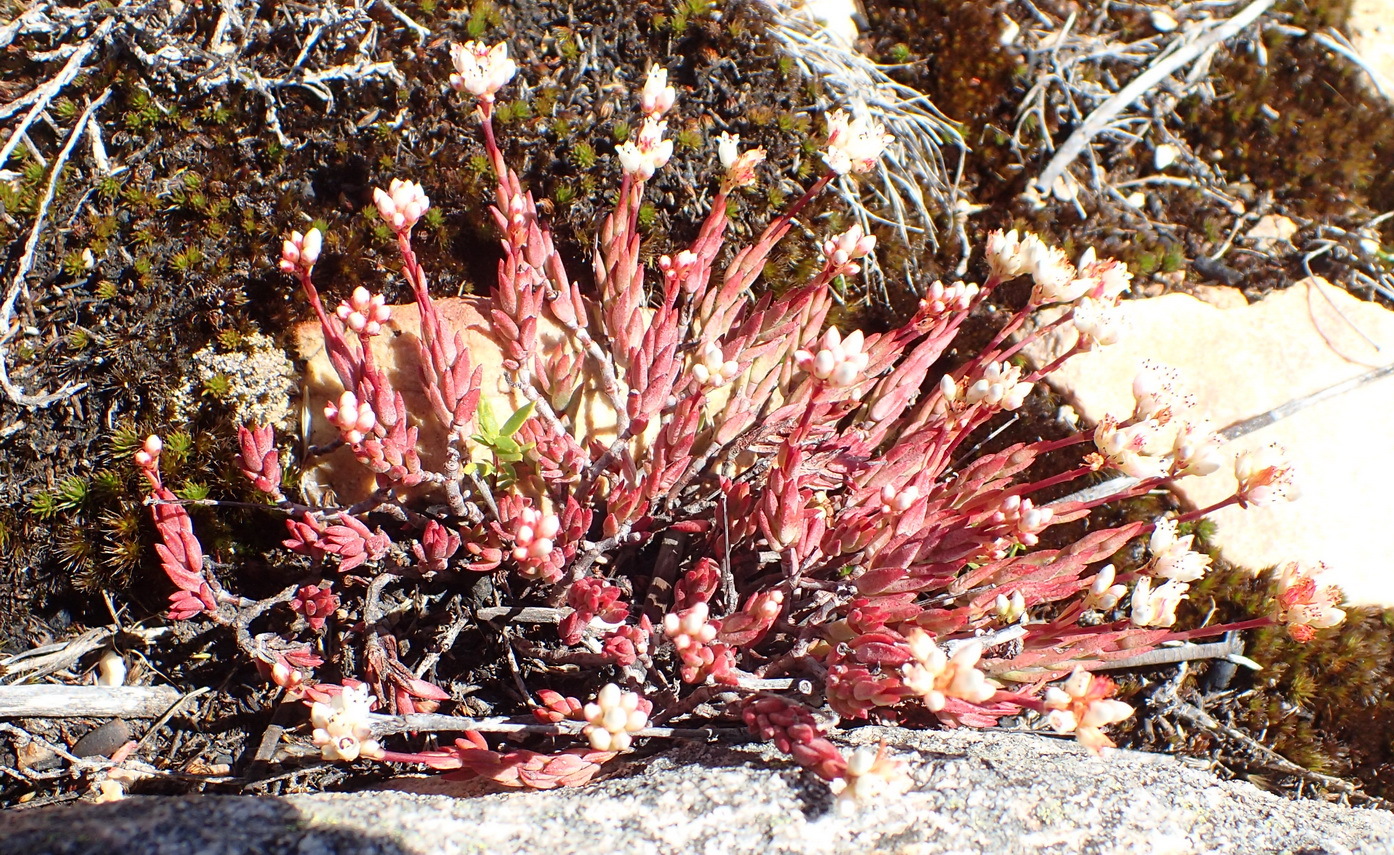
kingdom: Plantae
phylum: Tracheophyta
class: Magnoliopsida
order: Saxifragales
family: Crassulaceae
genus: Crassula
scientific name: Crassula biplanata
